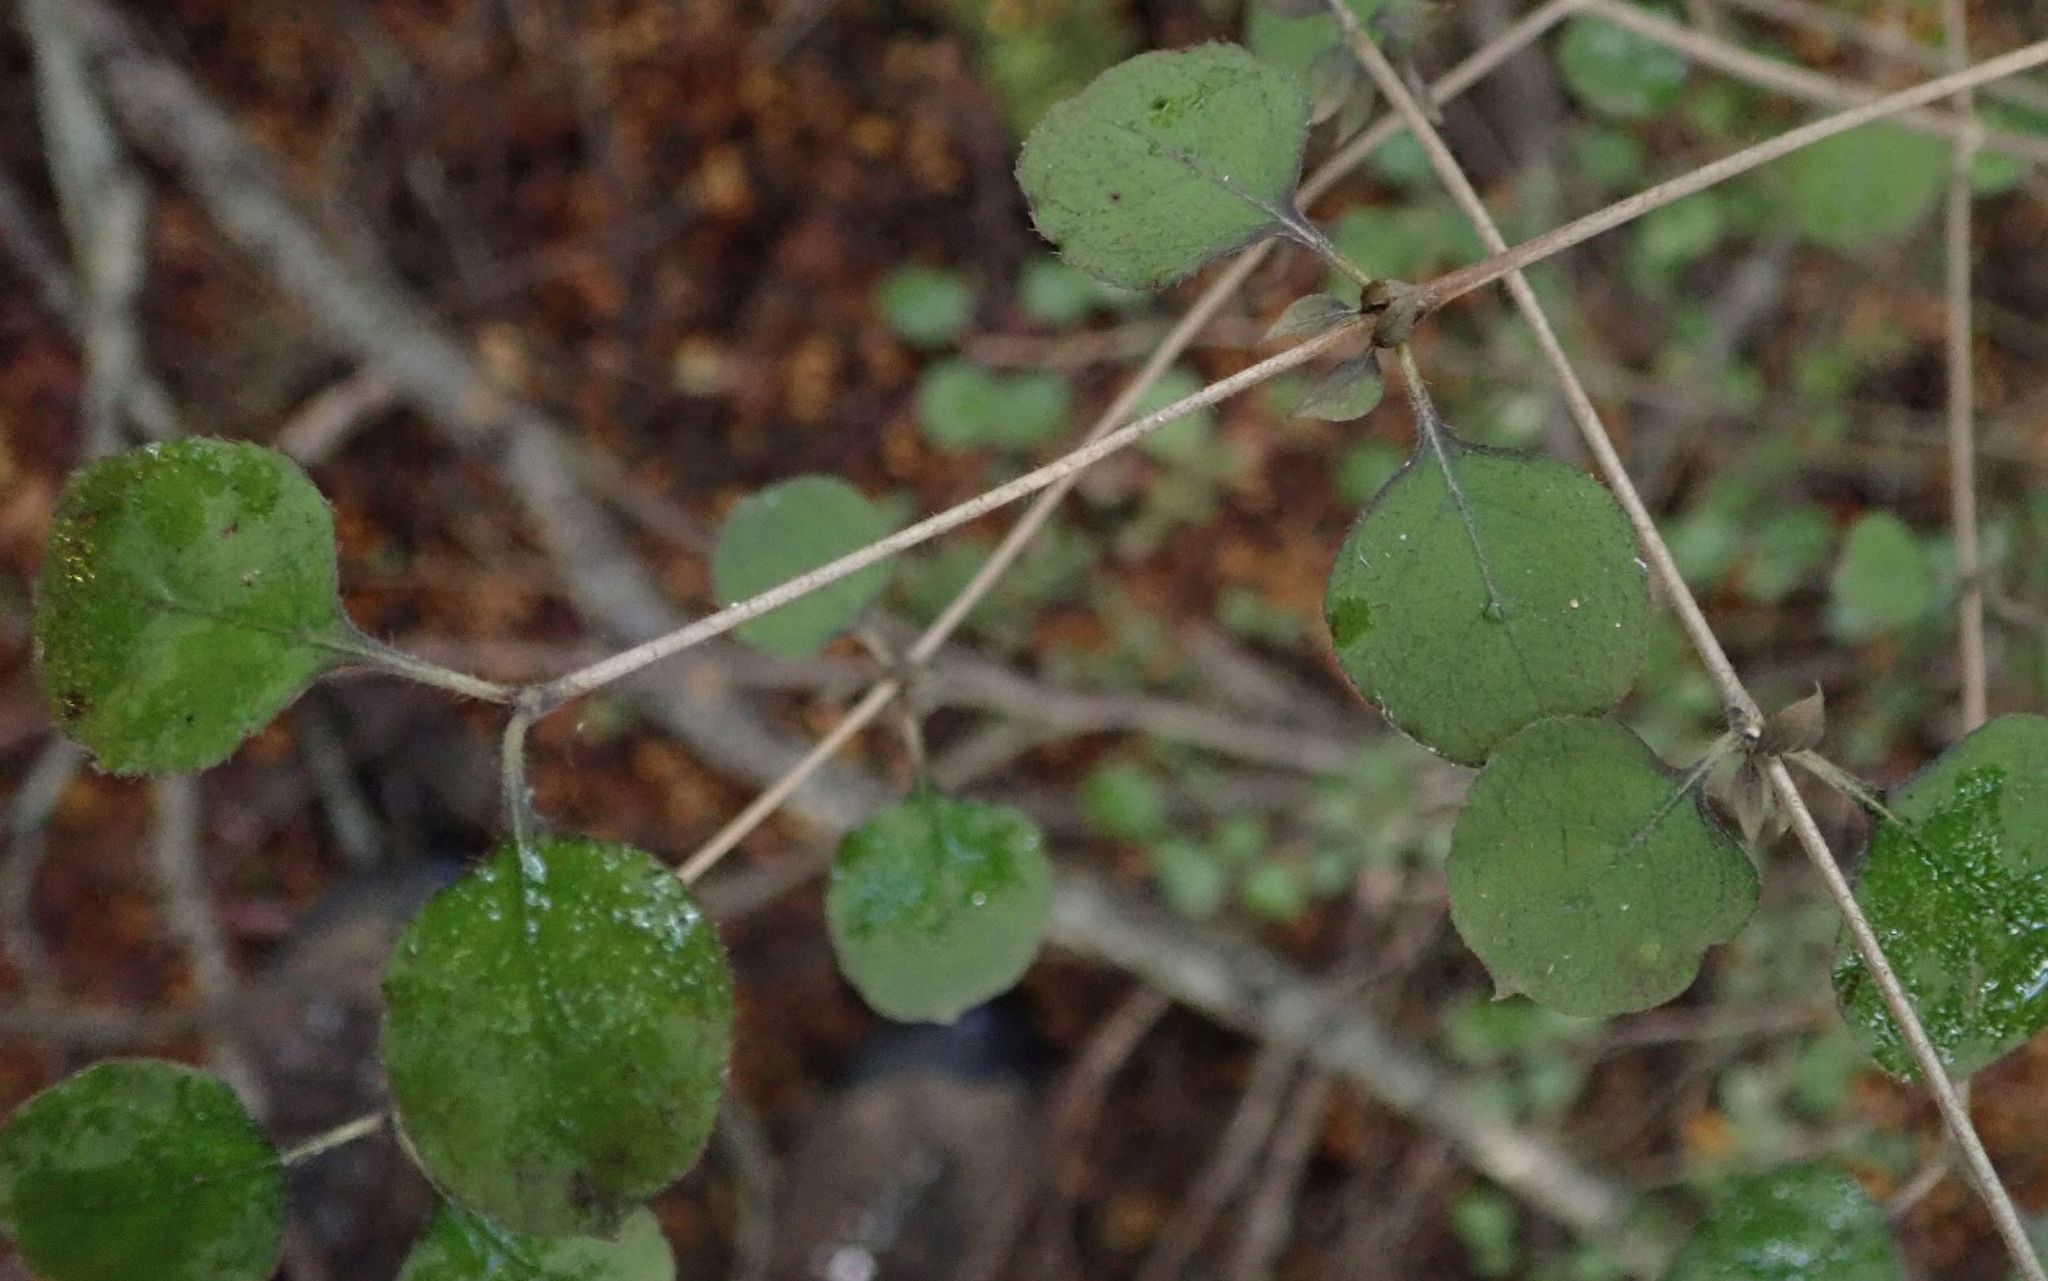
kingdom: Plantae
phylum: Tracheophyta
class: Magnoliopsida
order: Gentianales
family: Rubiaceae
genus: Coprosma
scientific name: Coprosma rotundifolia
